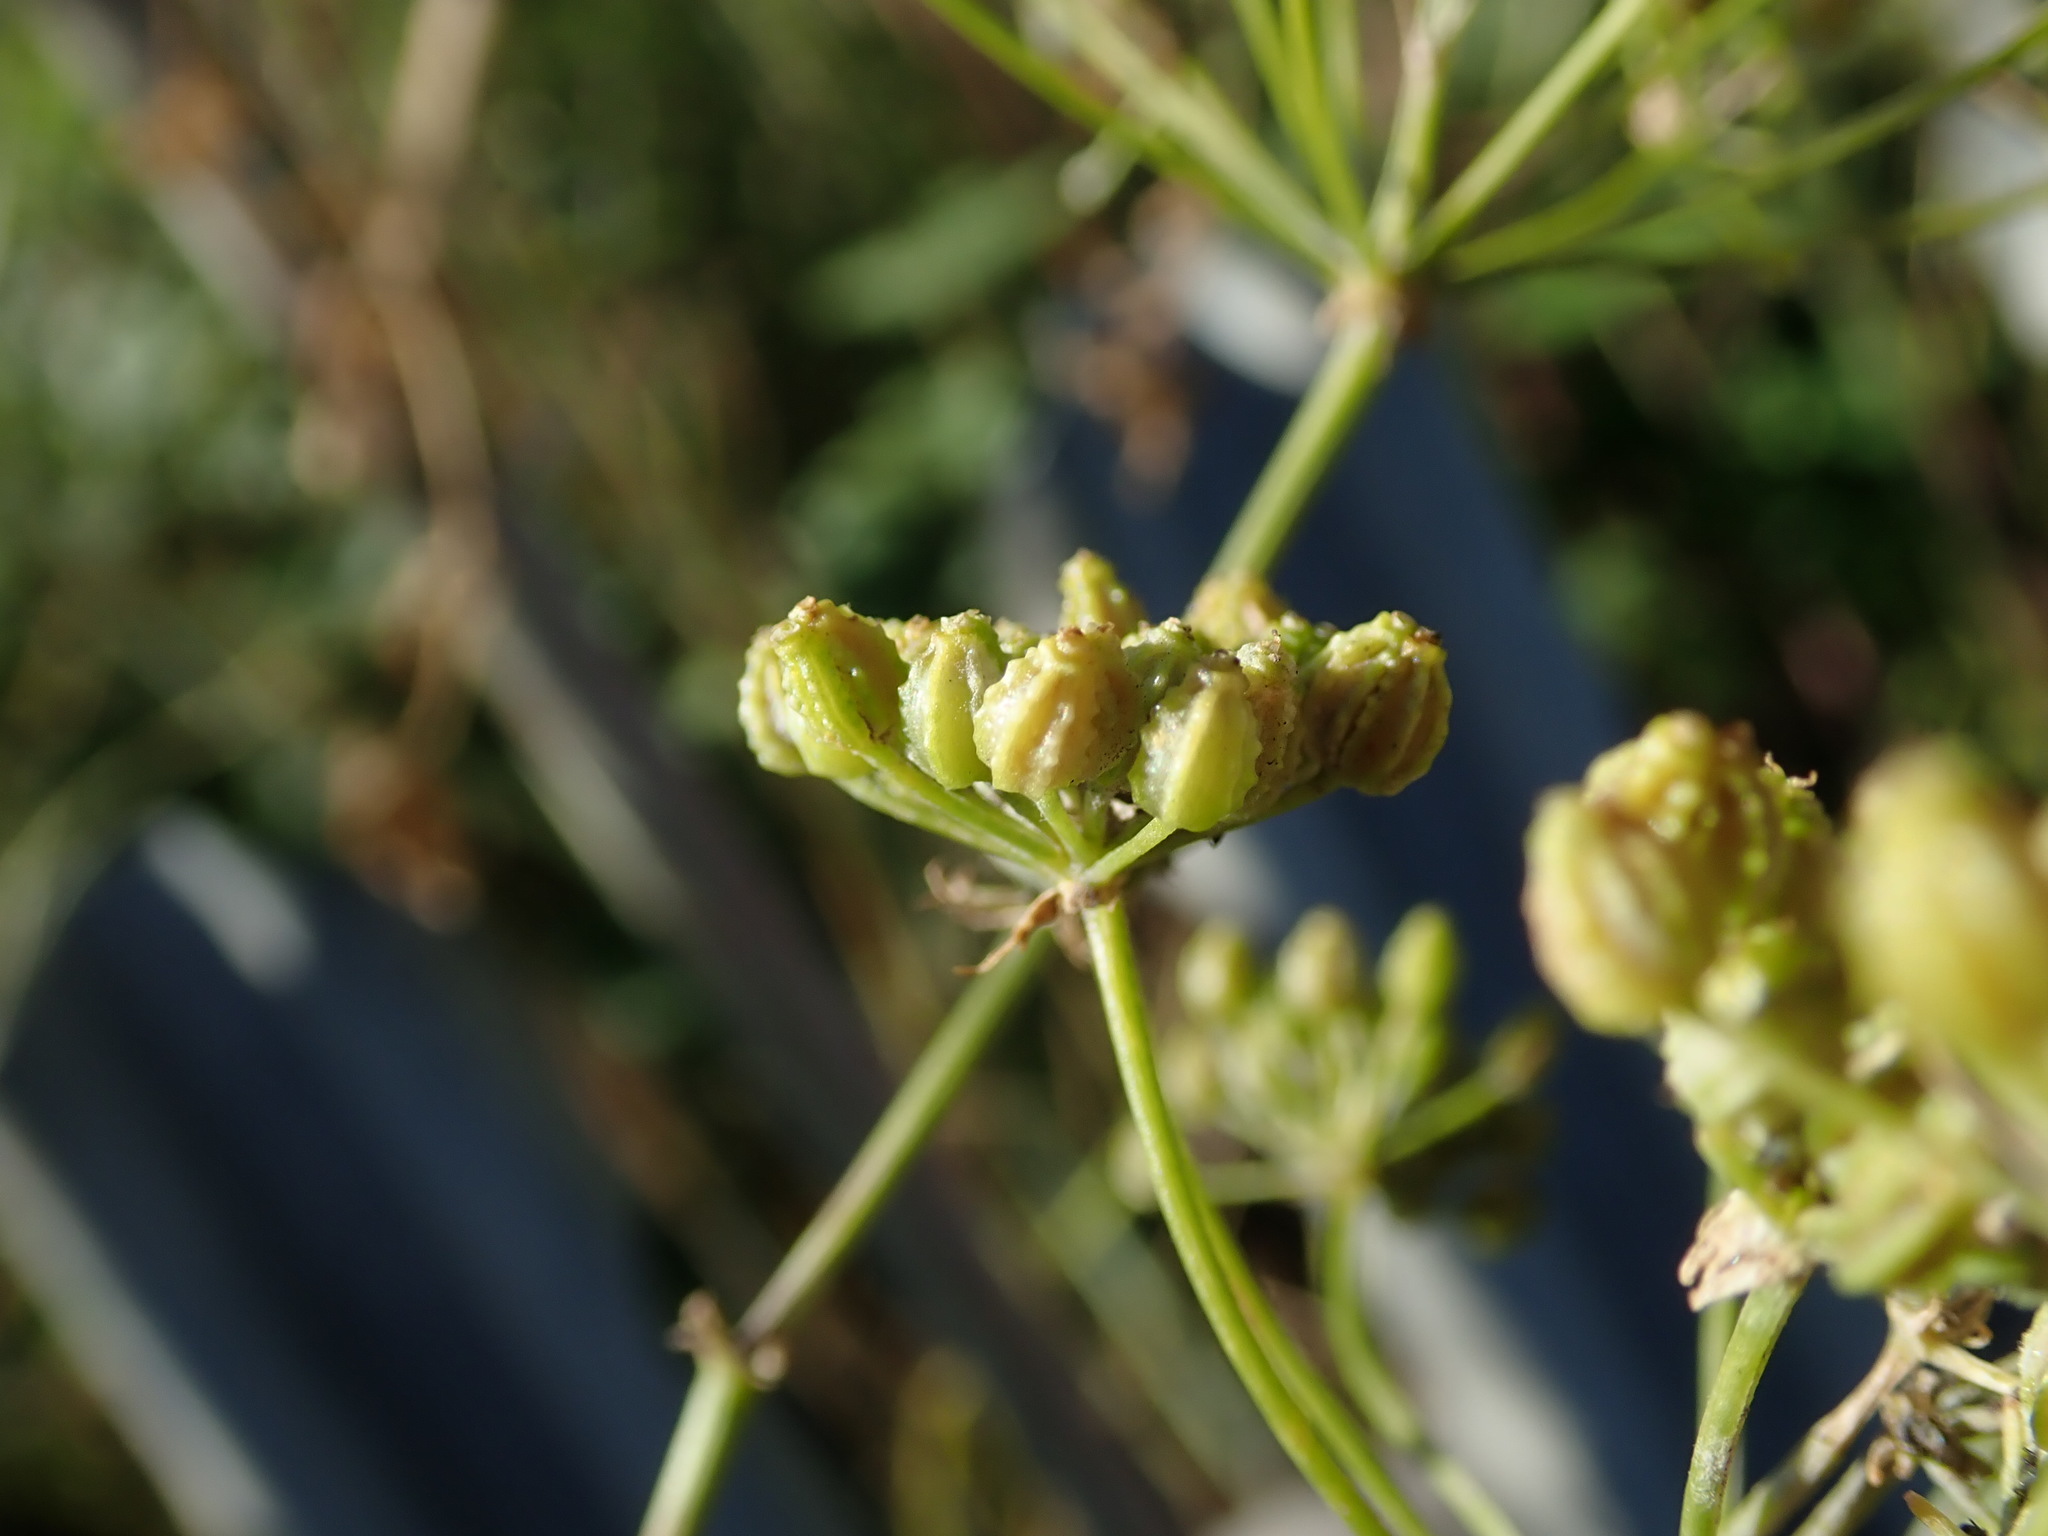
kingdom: Plantae
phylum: Tracheophyta
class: Magnoliopsida
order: Apiales
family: Apiaceae
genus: Conium
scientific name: Conium maculatum
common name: Hemlock
